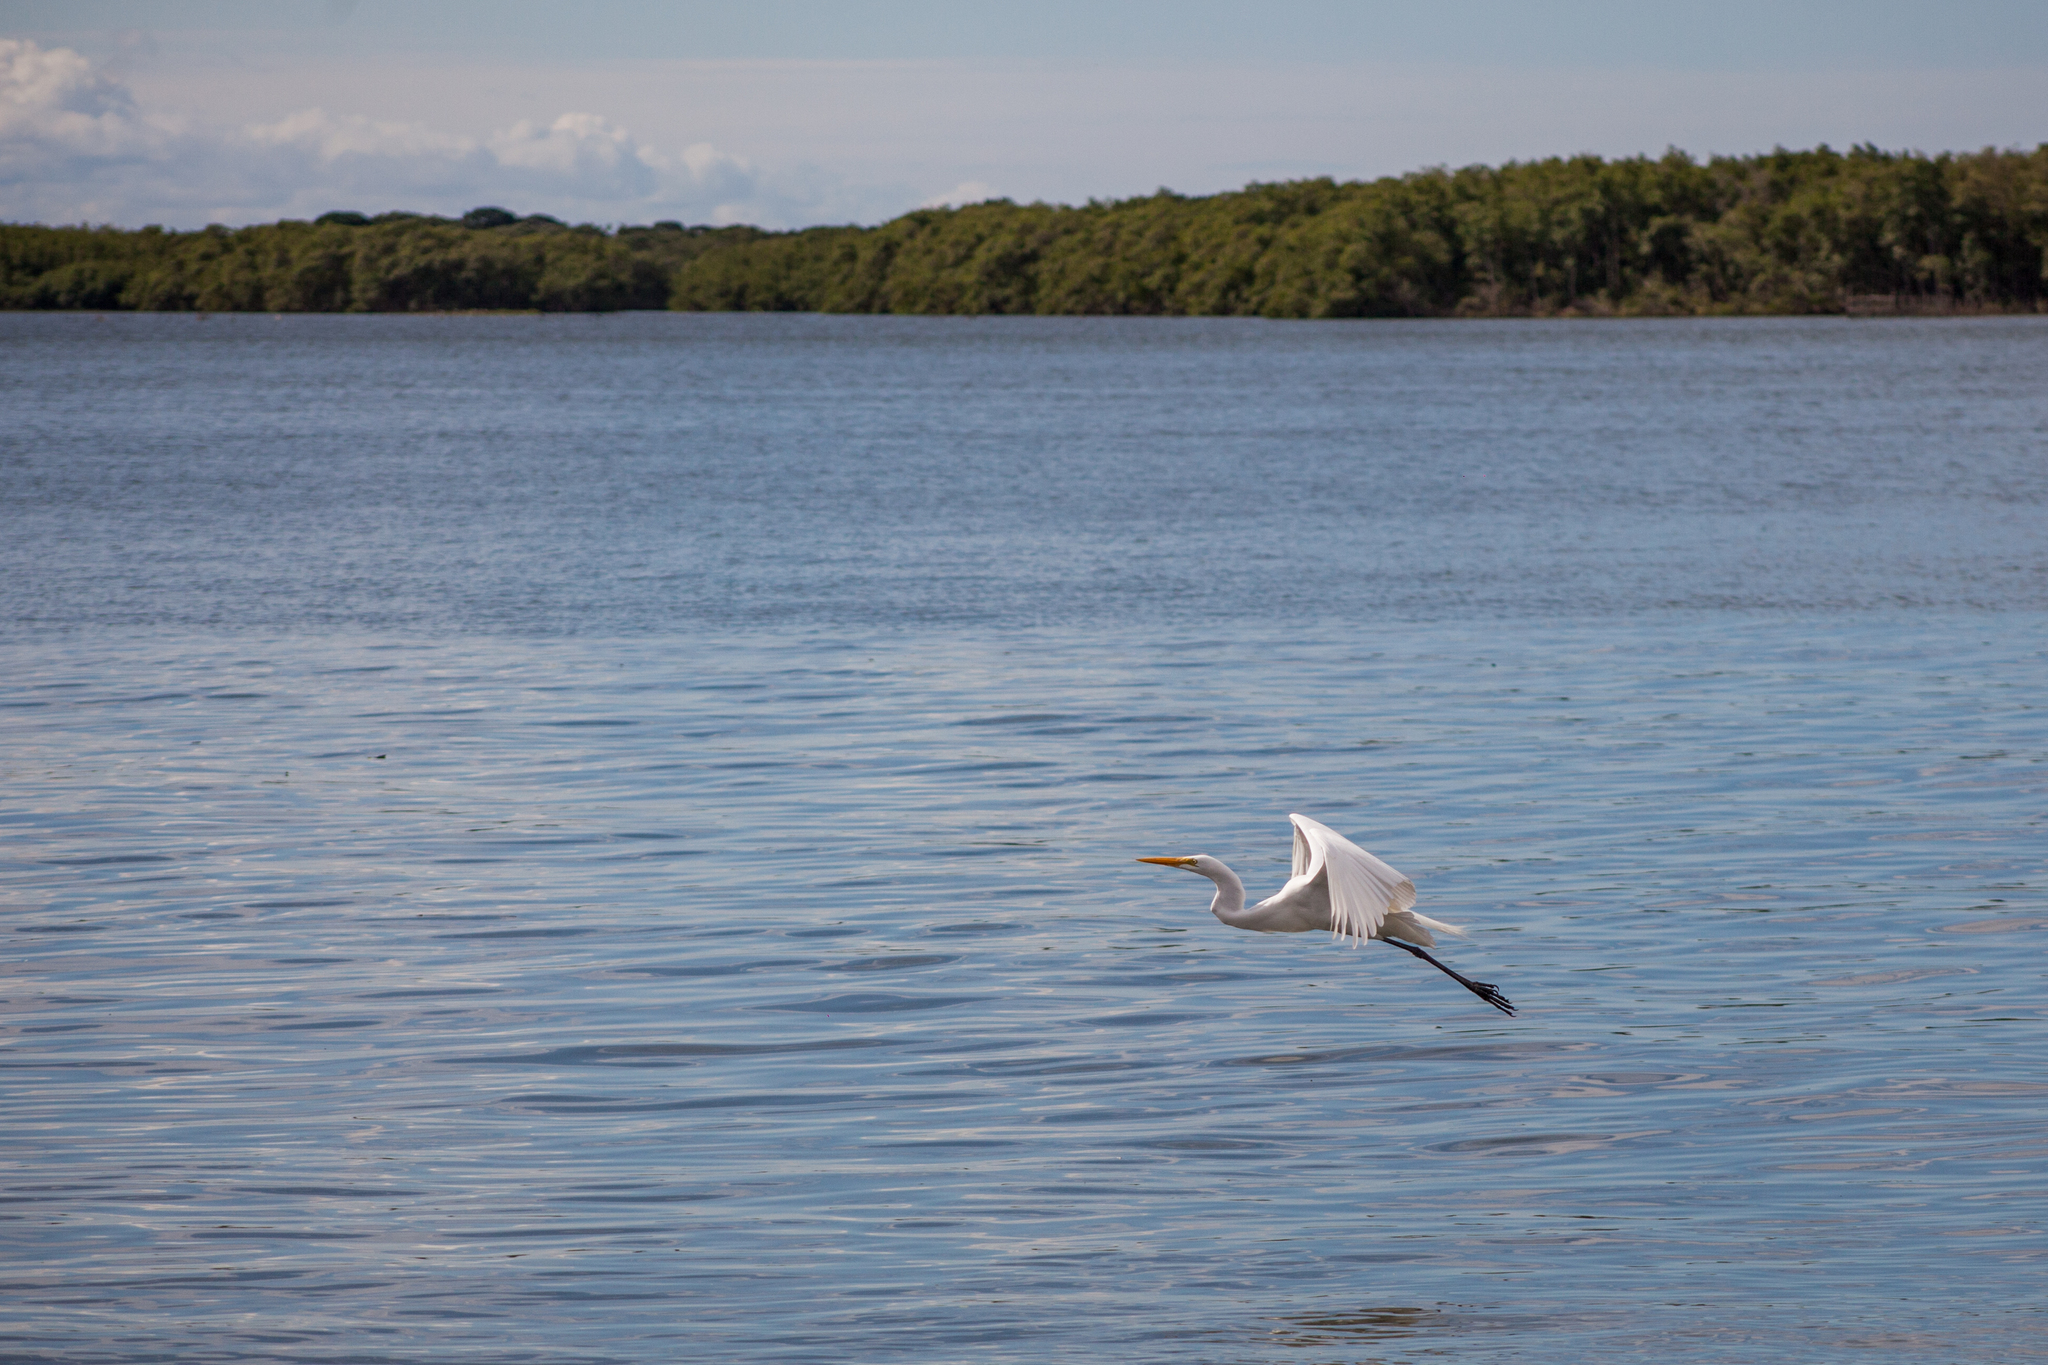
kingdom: Animalia
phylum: Chordata
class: Aves
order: Pelecaniformes
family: Ardeidae
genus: Ardea
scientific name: Ardea alba
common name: Great egret
